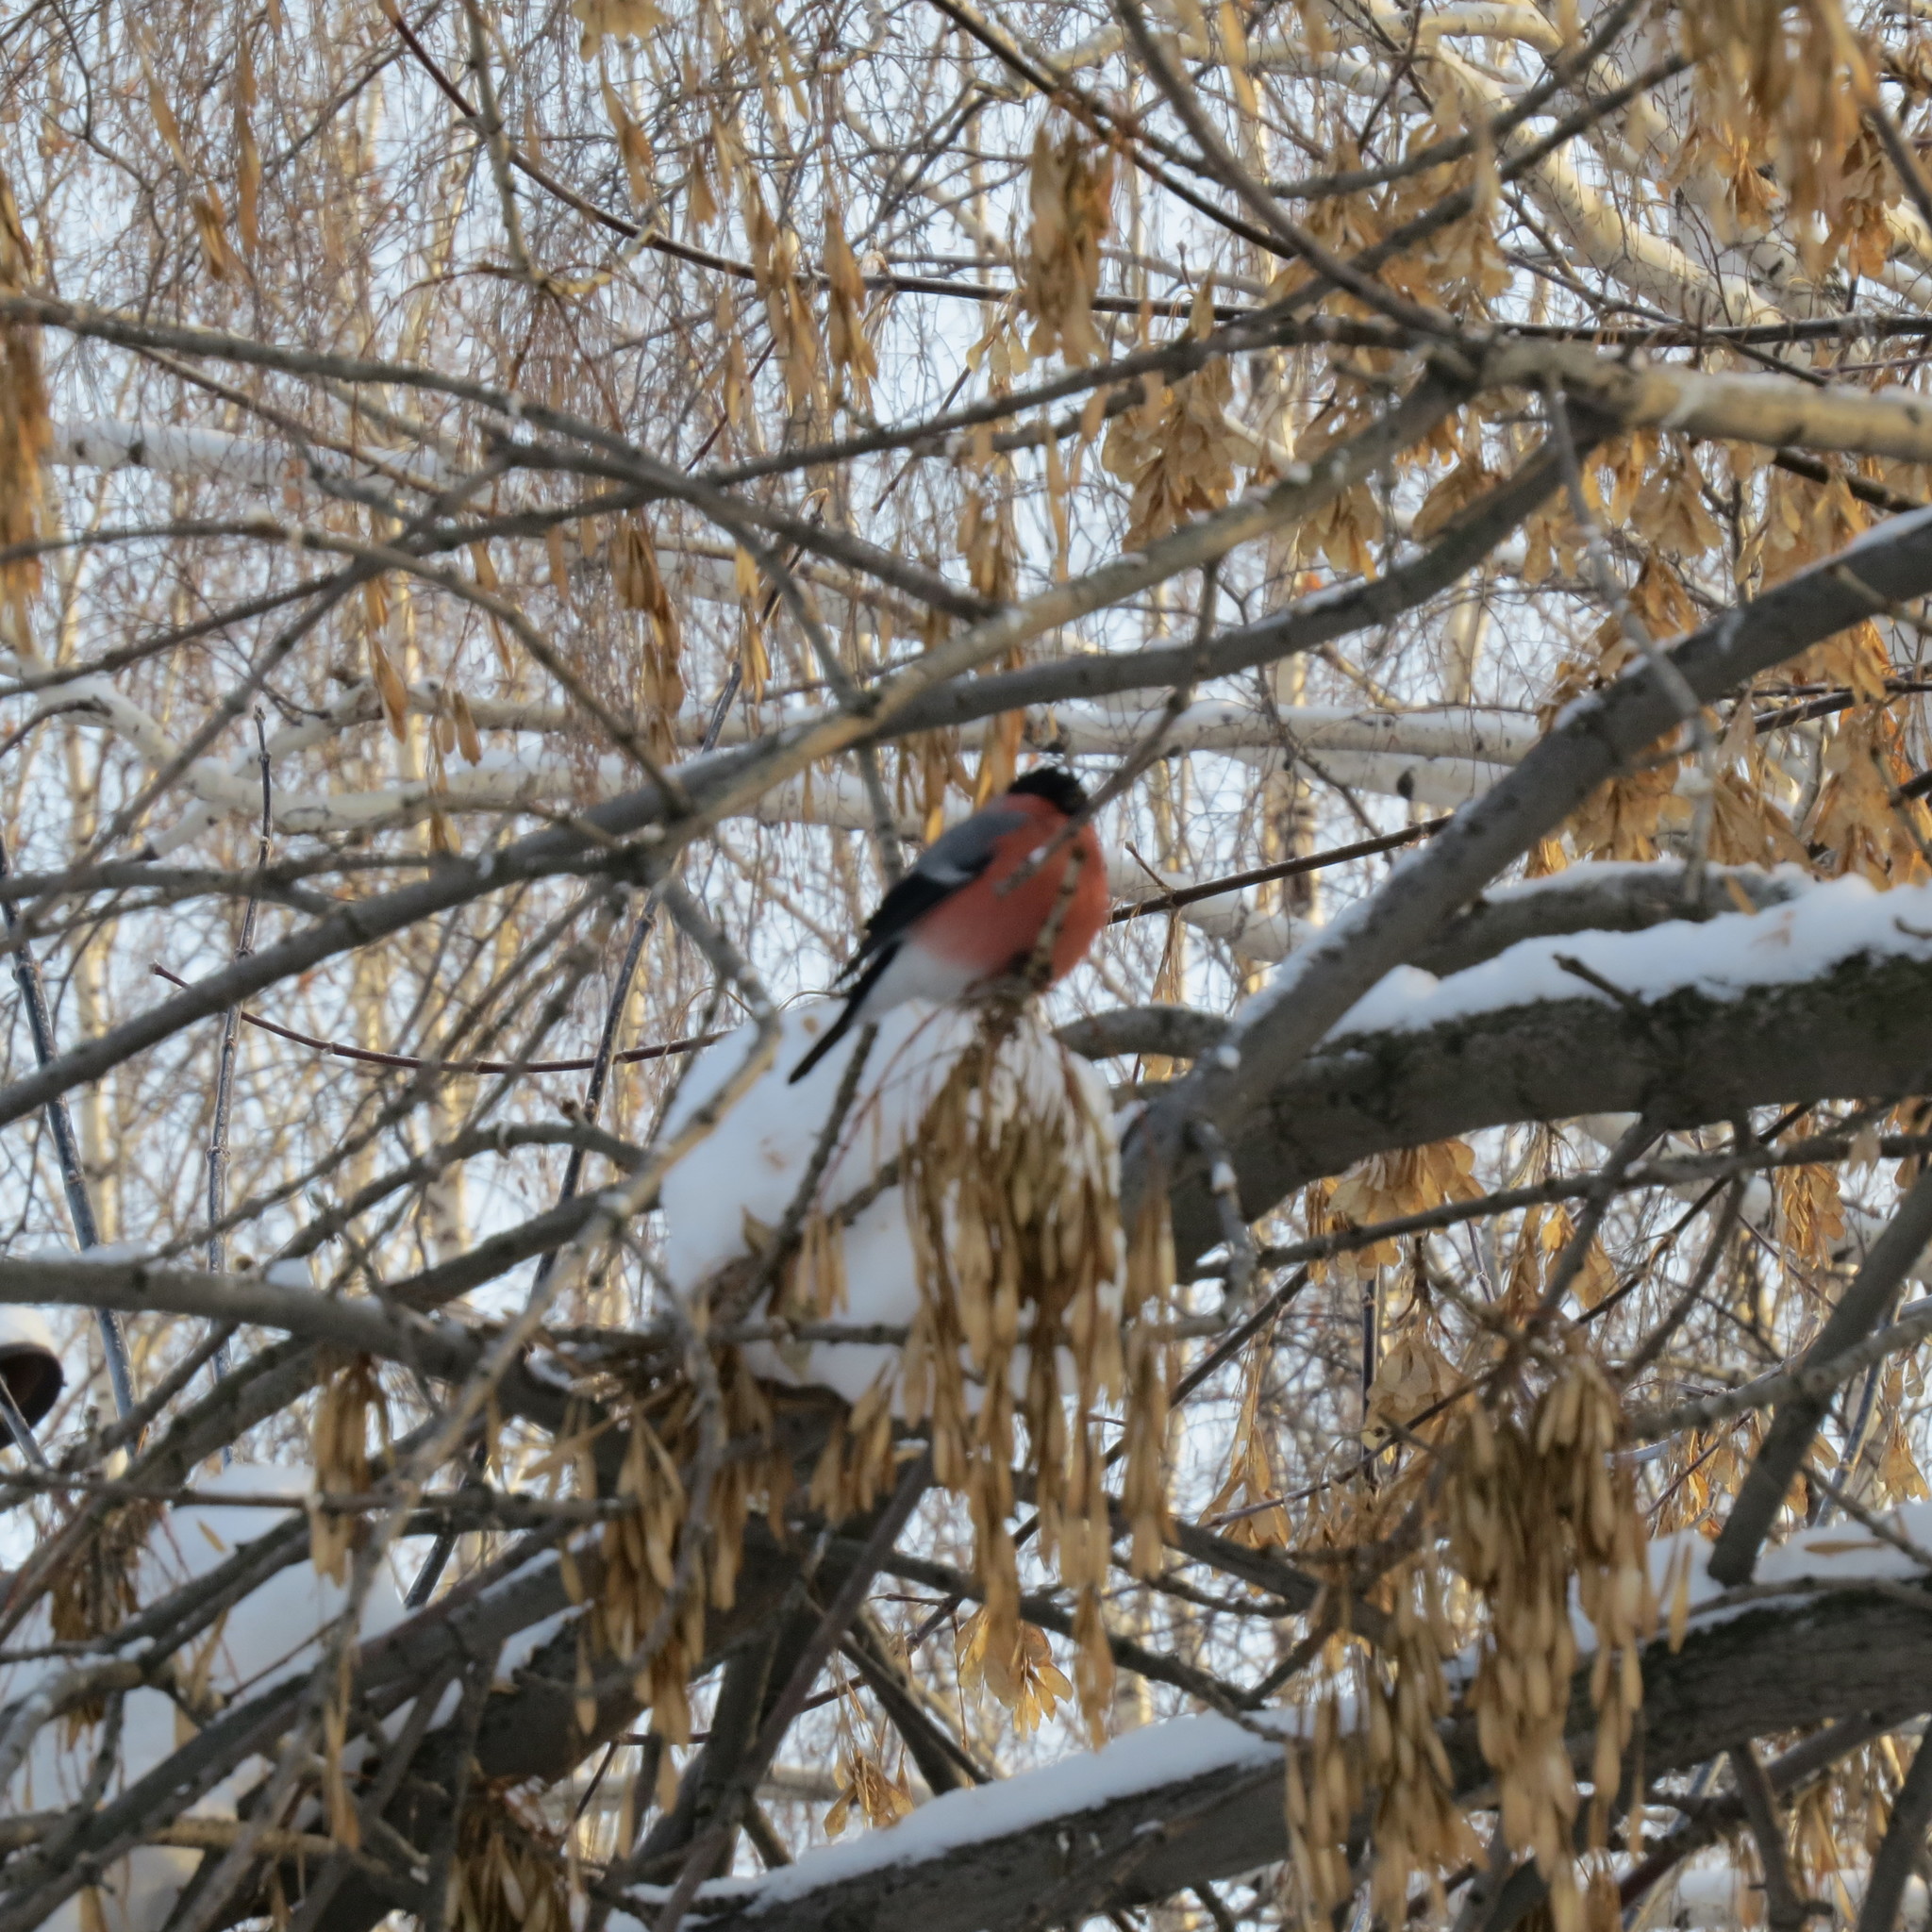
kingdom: Animalia
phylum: Chordata
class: Aves
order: Passeriformes
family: Fringillidae
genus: Pyrrhula
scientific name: Pyrrhula pyrrhula
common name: Eurasian bullfinch
